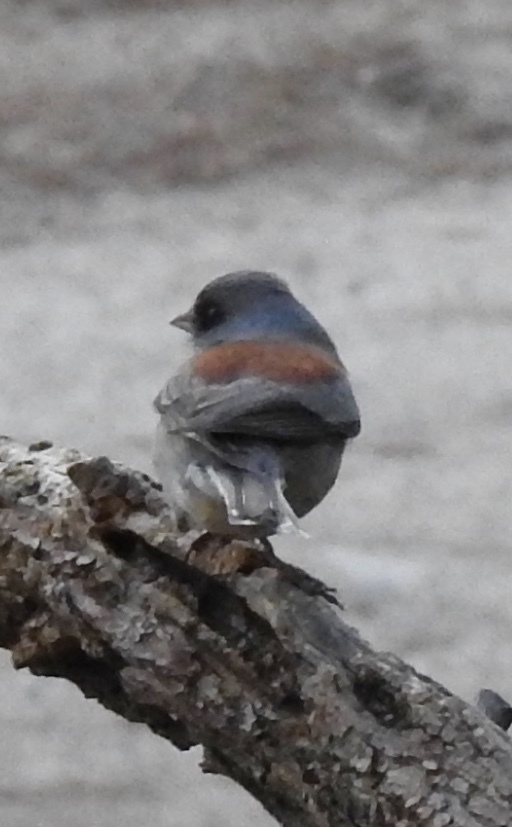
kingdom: Animalia
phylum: Chordata
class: Aves
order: Passeriformes
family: Passerellidae
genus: Junco
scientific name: Junco hyemalis
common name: Dark-eyed junco
